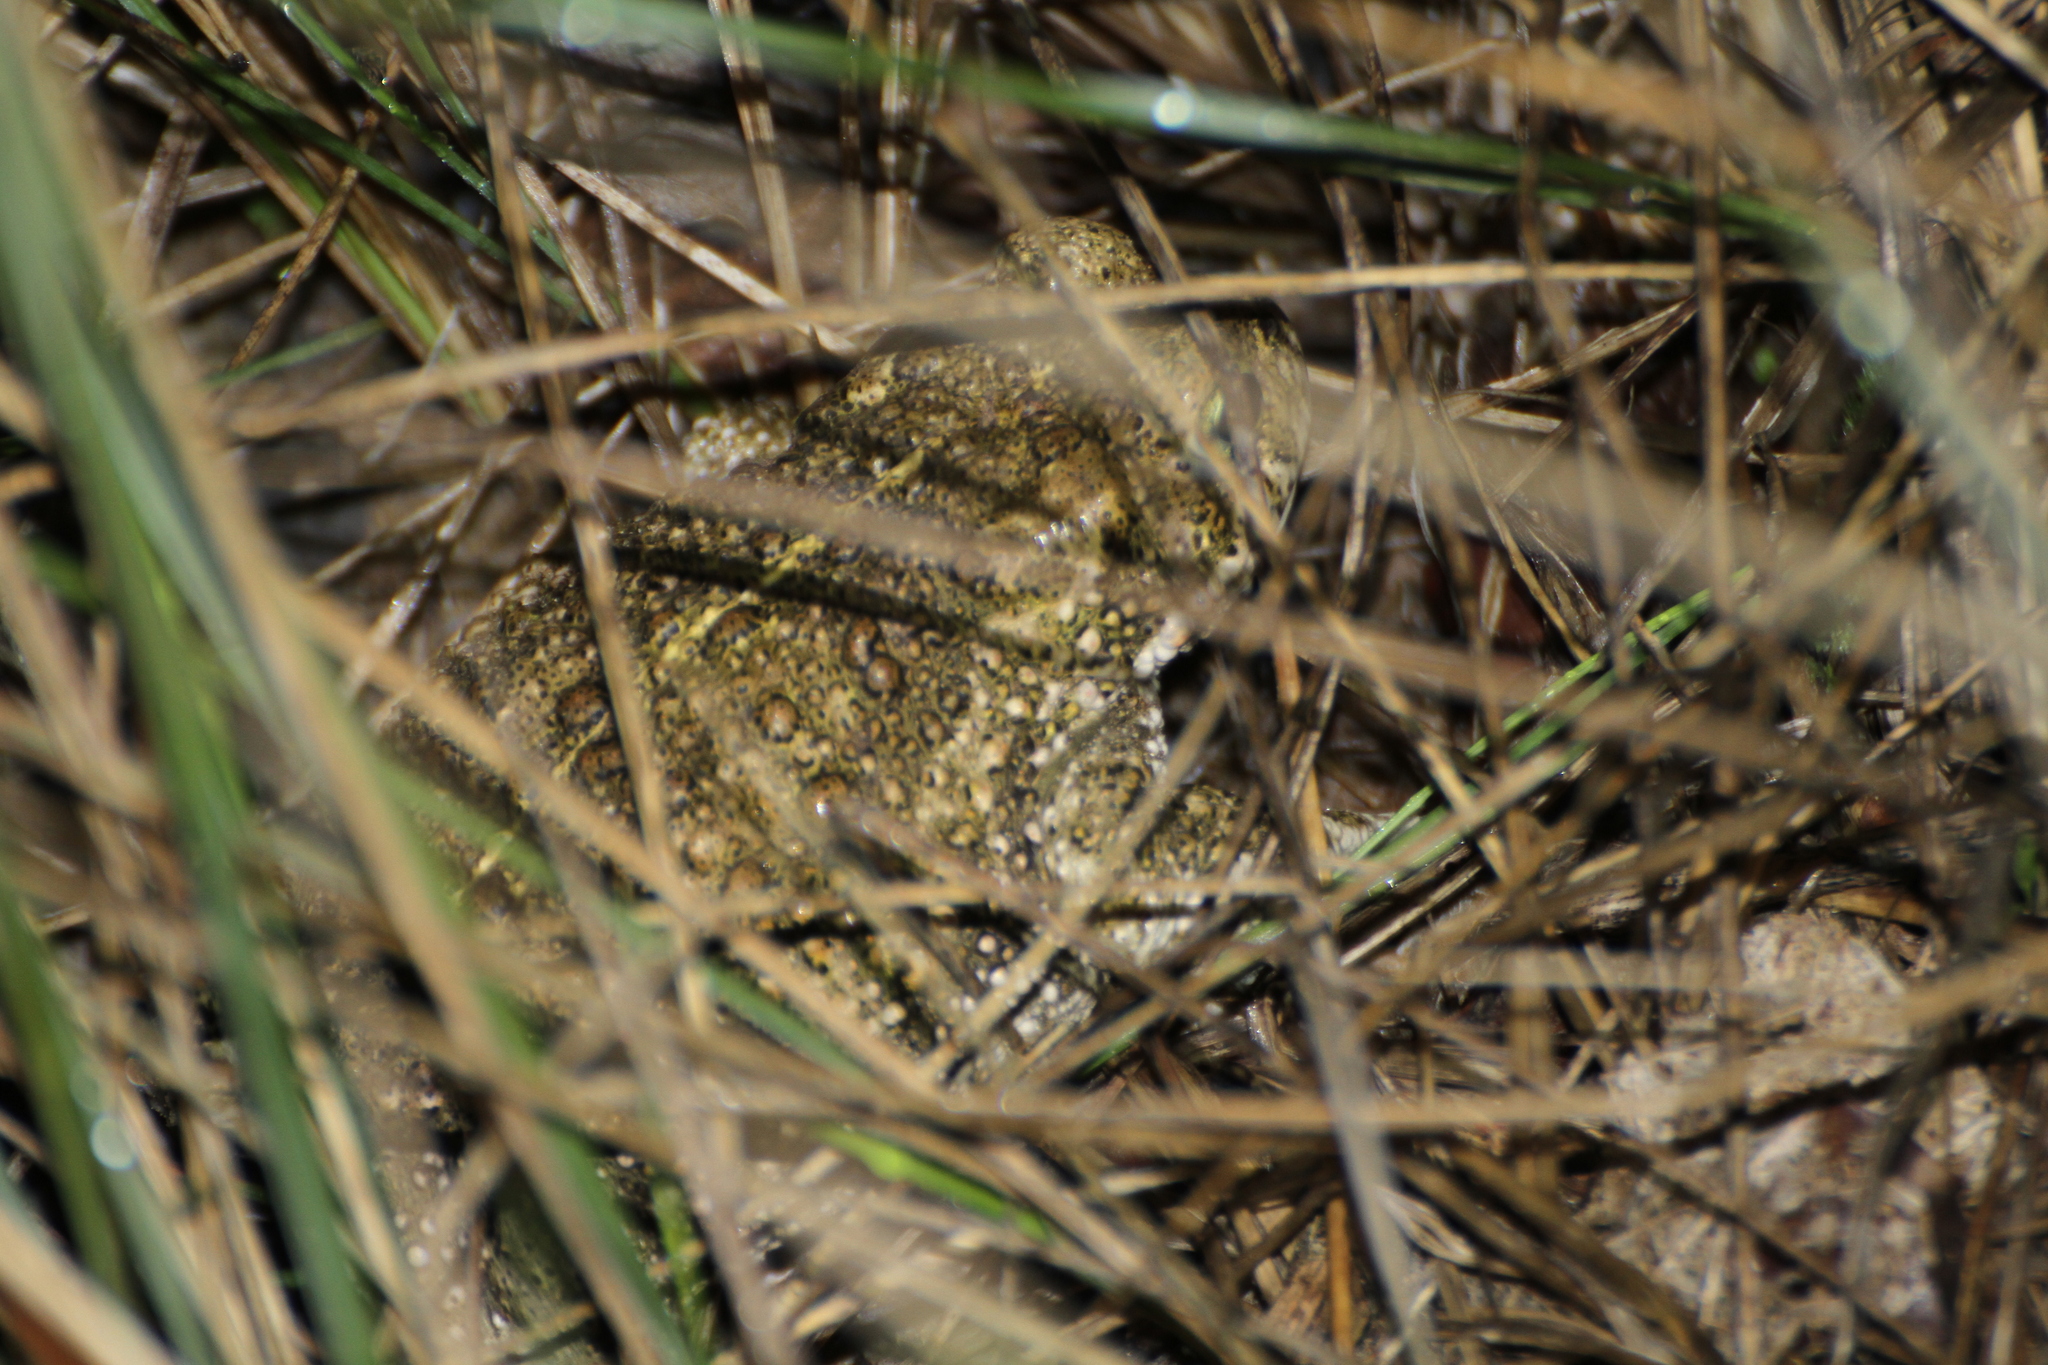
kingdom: Animalia
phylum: Chordata
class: Amphibia
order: Anura
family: Bufonidae
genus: Epidalea
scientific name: Epidalea calamita
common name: Natterjack toad
